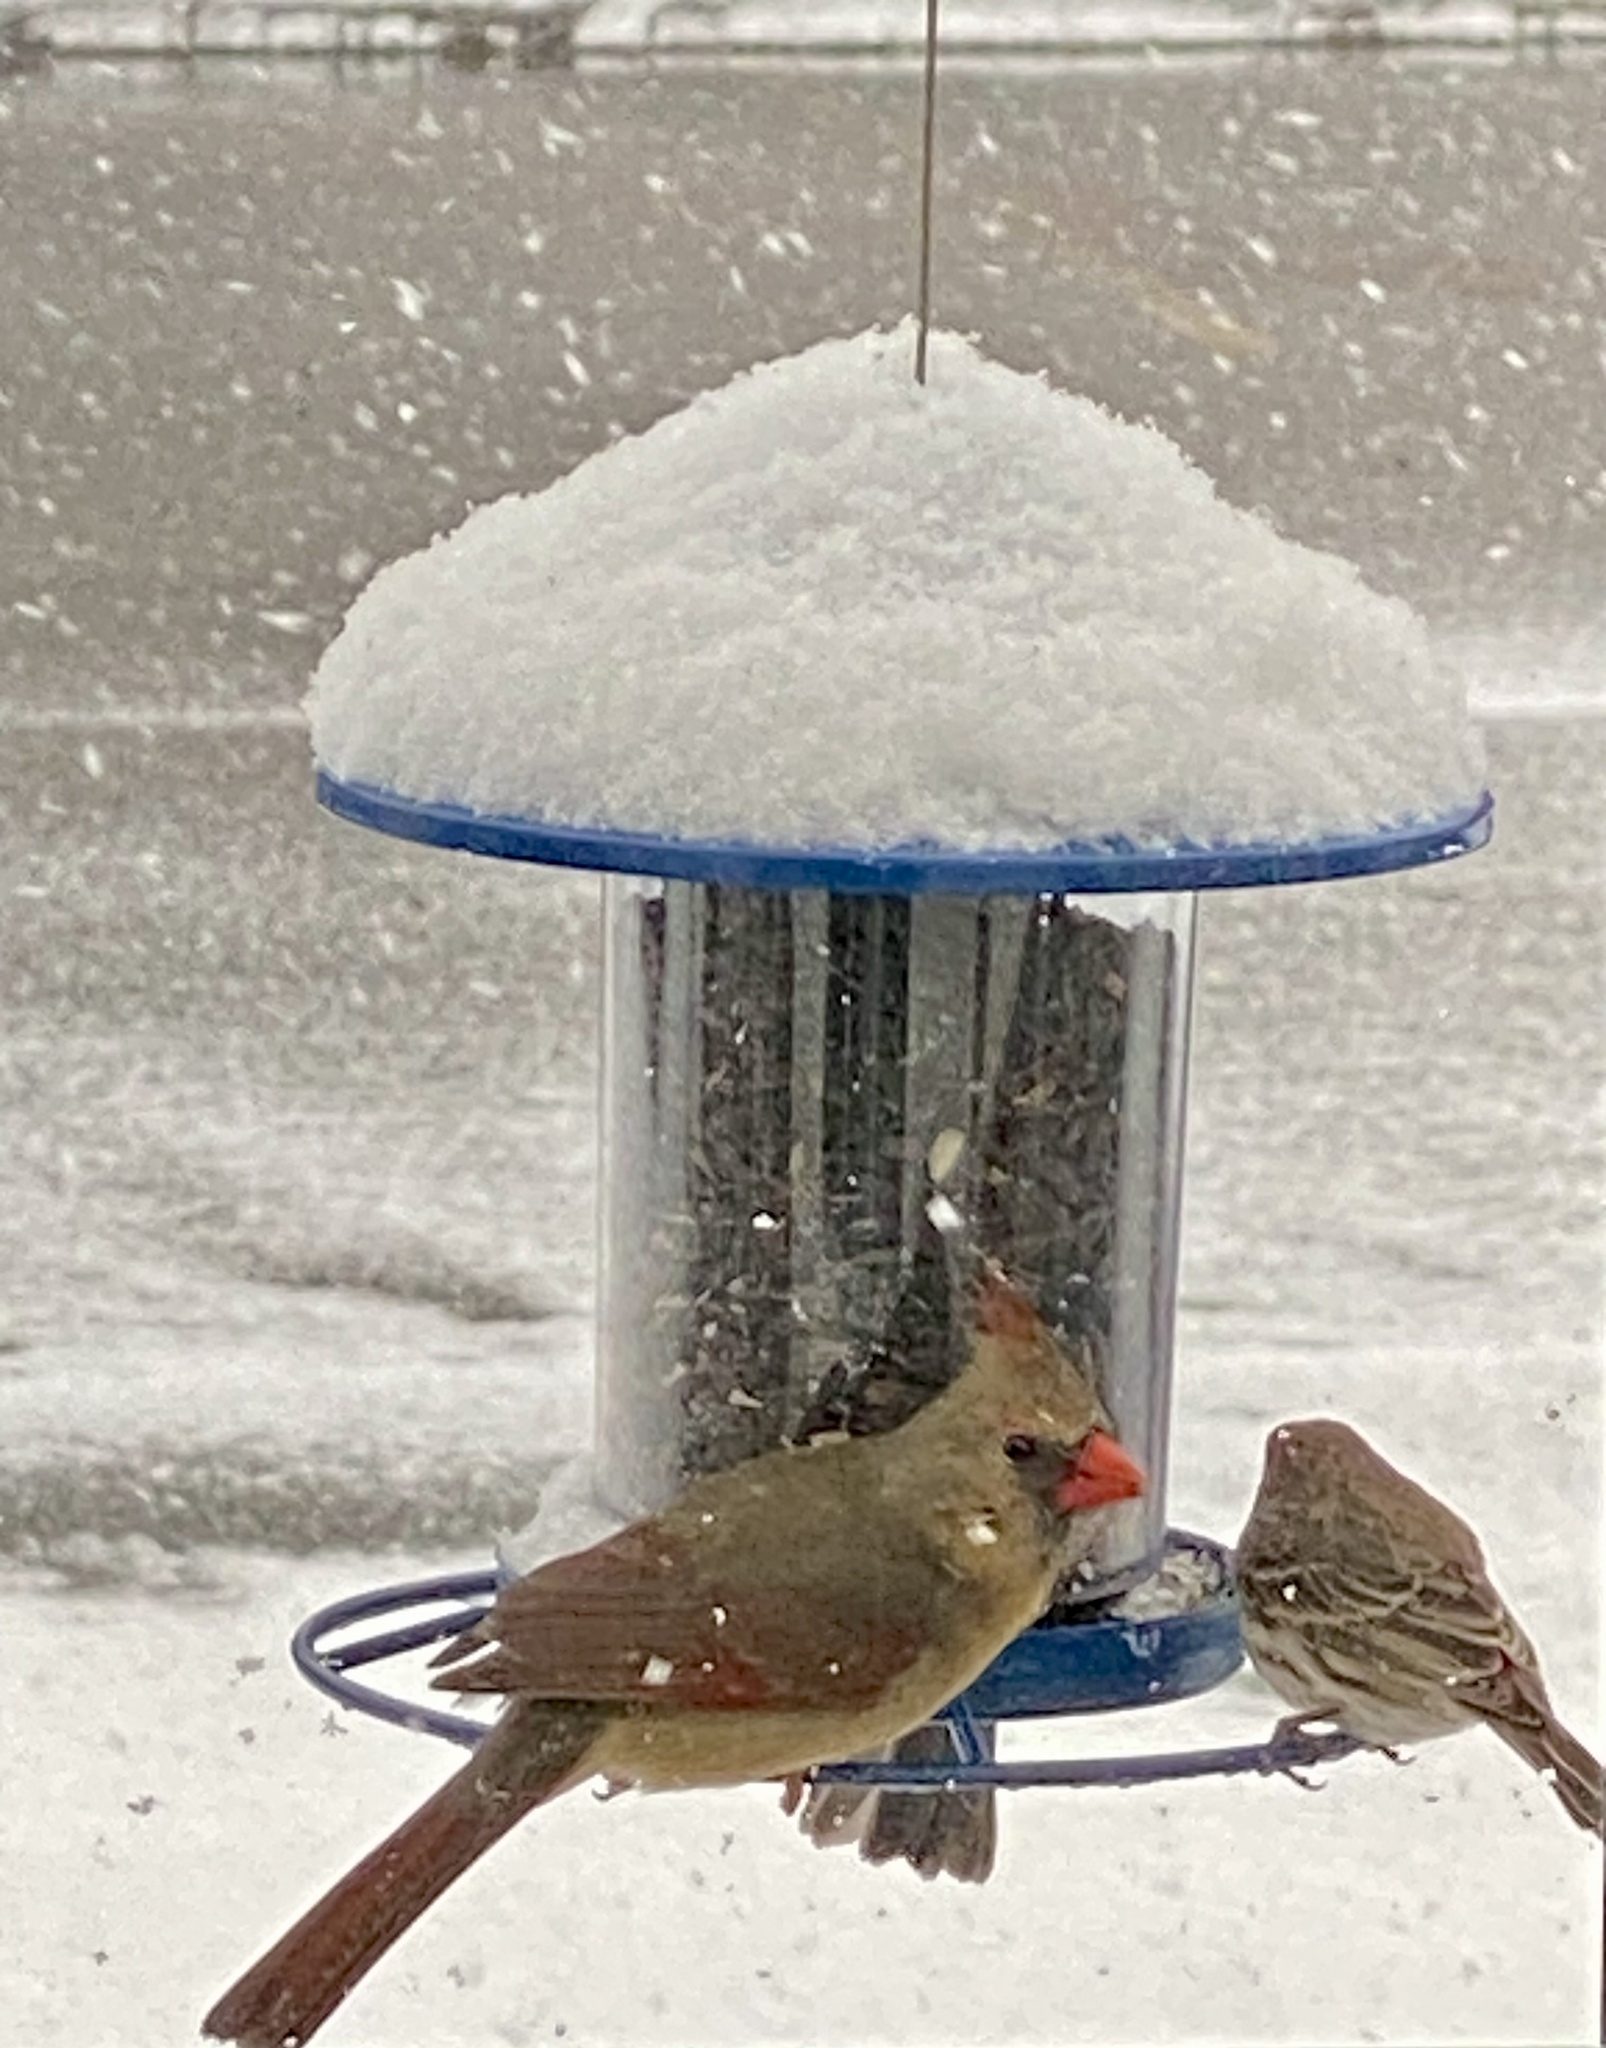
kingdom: Animalia
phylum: Chordata
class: Aves
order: Passeriformes
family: Cardinalidae
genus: Cardinalis
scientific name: Cardinalis cardinalis
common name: Northern cardinal
